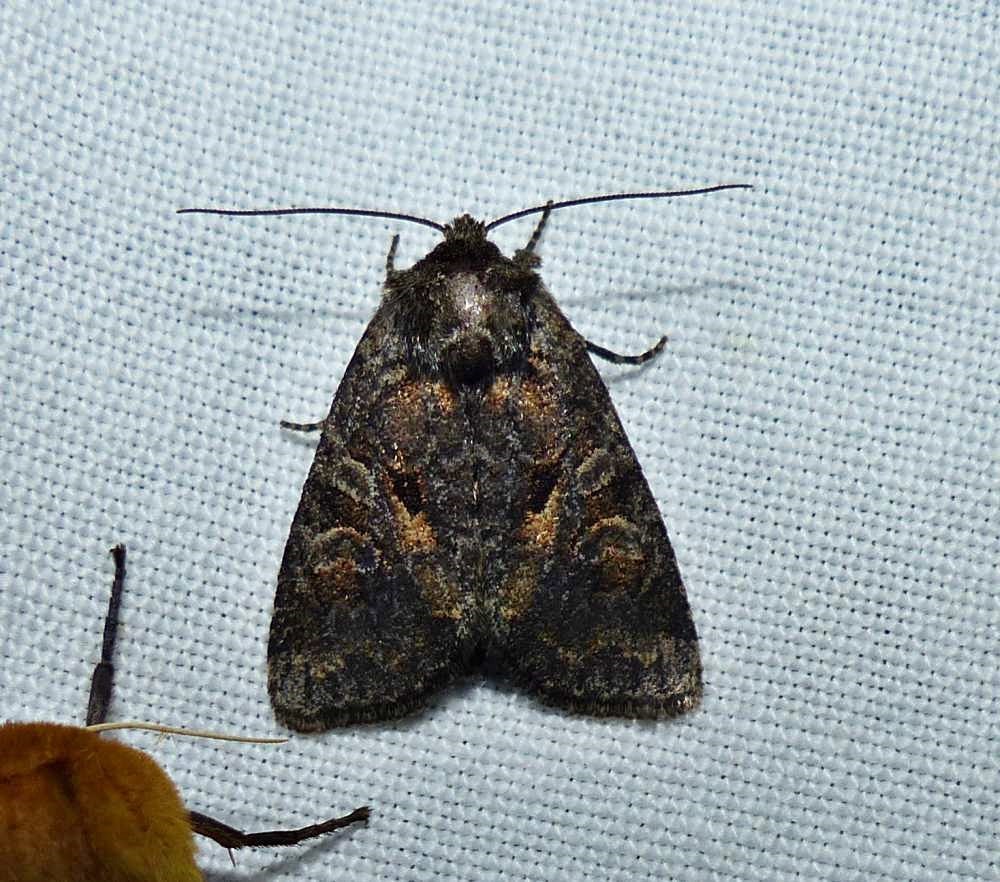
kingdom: Animalia
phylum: Arthropoda
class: Insecta
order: Lepidoptera
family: Noctuidae
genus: Orthodes
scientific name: Orthodes detracta
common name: Disparaged arches moth
